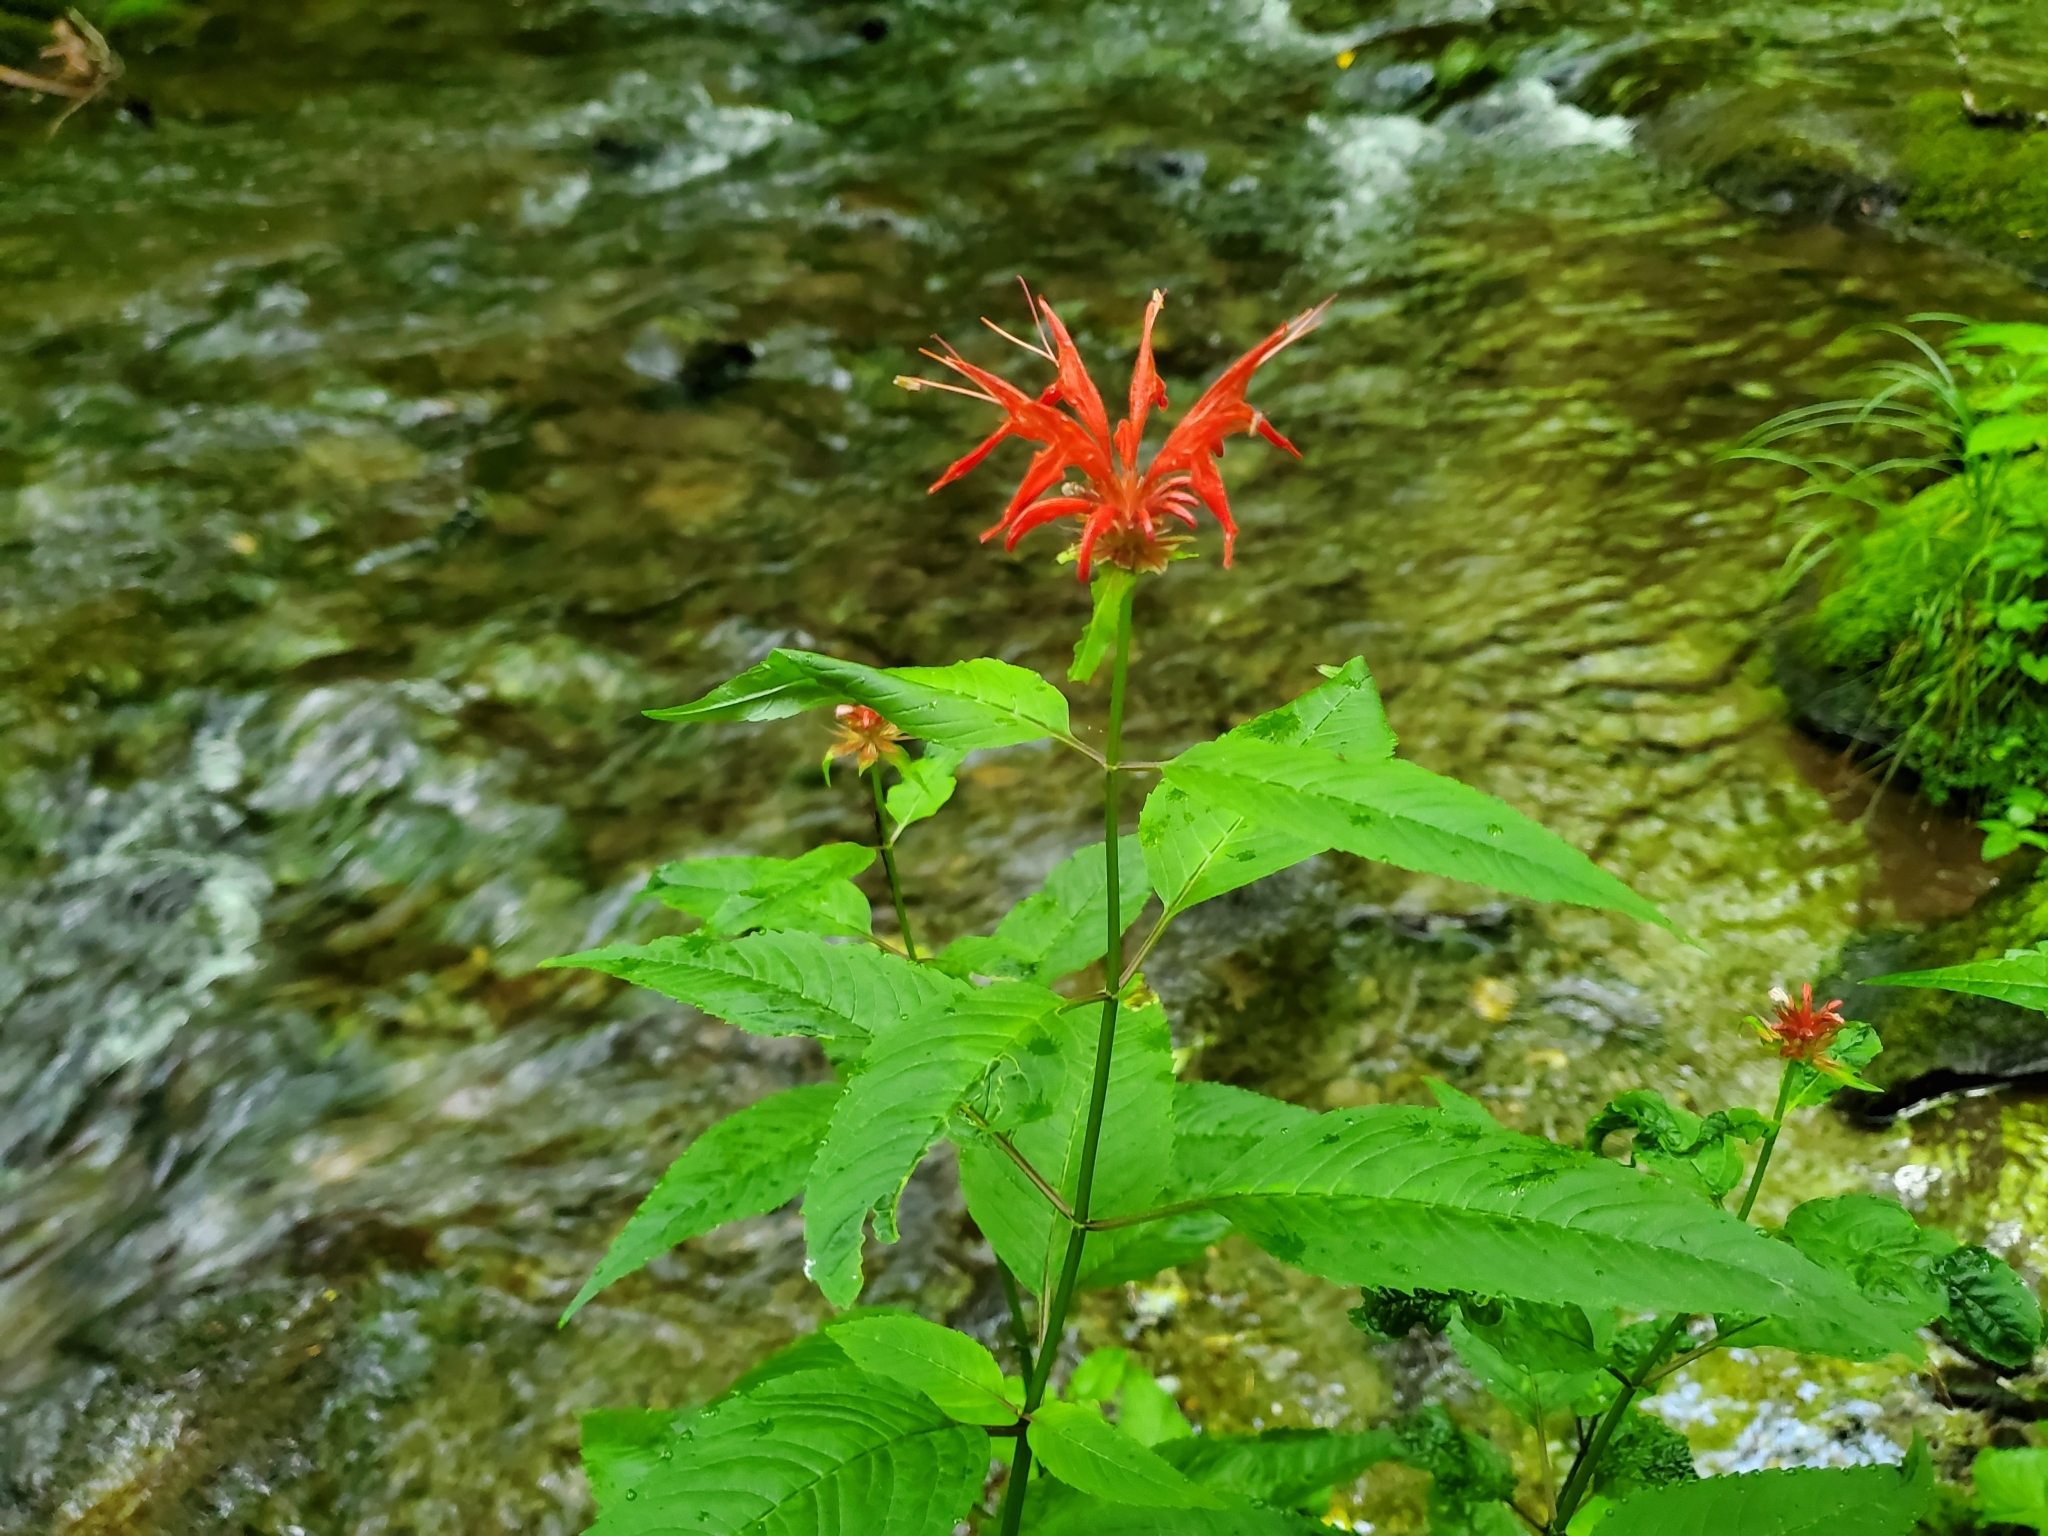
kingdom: Plantae
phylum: Tracheophyta
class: Magnoliopsida
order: Lamiales
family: Lamiaceae
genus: Monarda
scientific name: Monarda didyma
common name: Beebalm
